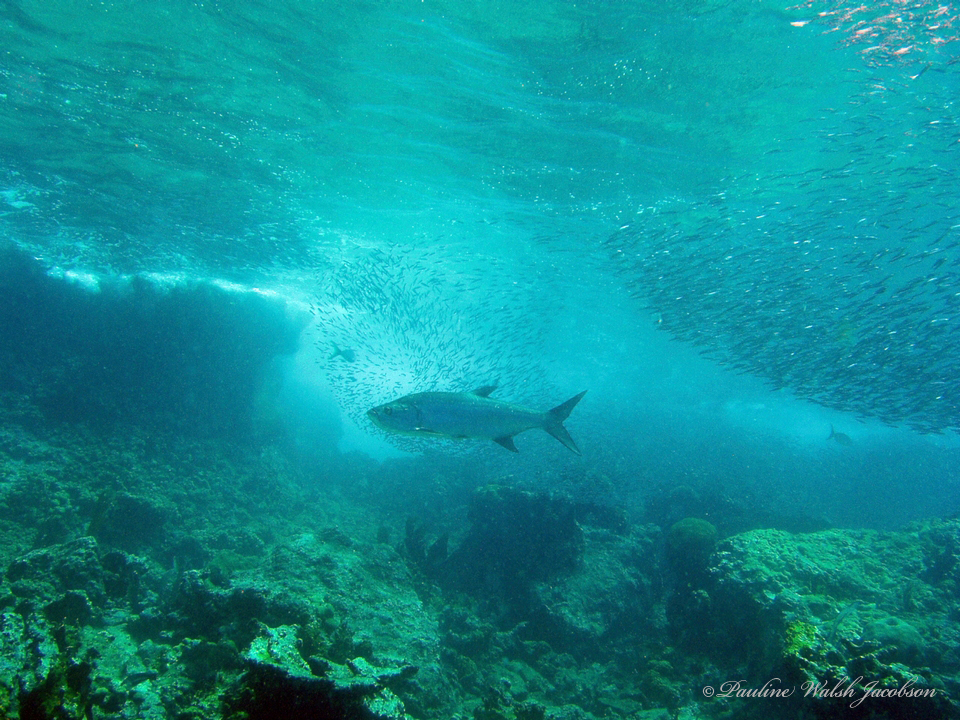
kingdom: Animalia
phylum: Chordata
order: Elopiformes
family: Megalopidae
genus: Megalops
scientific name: Megalops atlanticus
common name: Tarpon
